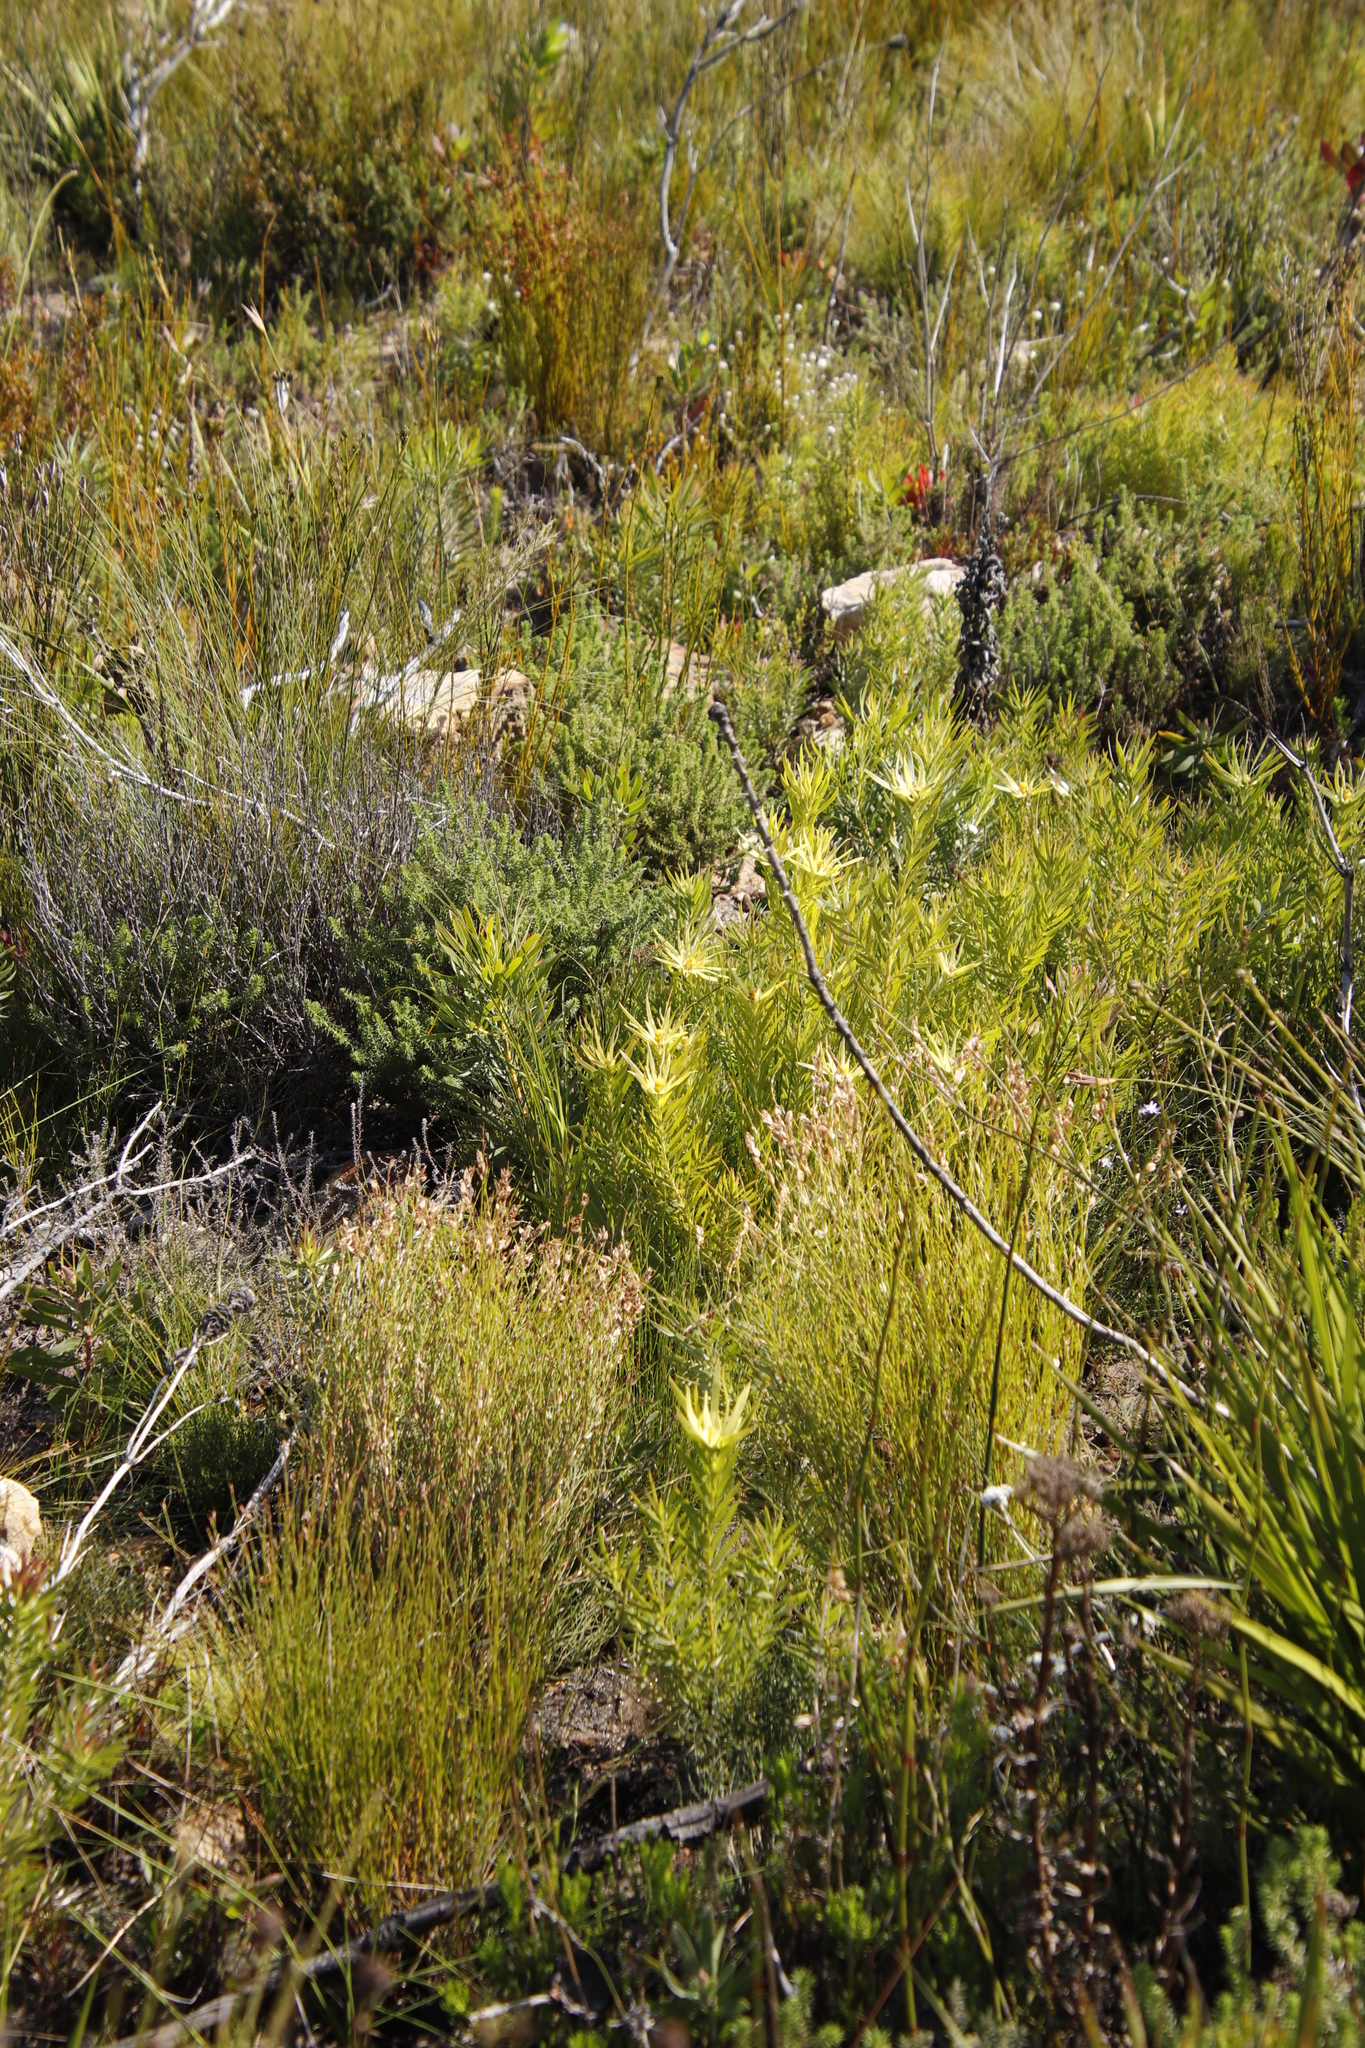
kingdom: Plantae
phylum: Tracheophyta
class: Magnoliopsida
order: Proteales
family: Proteaceae
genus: Leucadendron
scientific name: Leucadendron xanthoconus
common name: Sickle-leaf conebush
